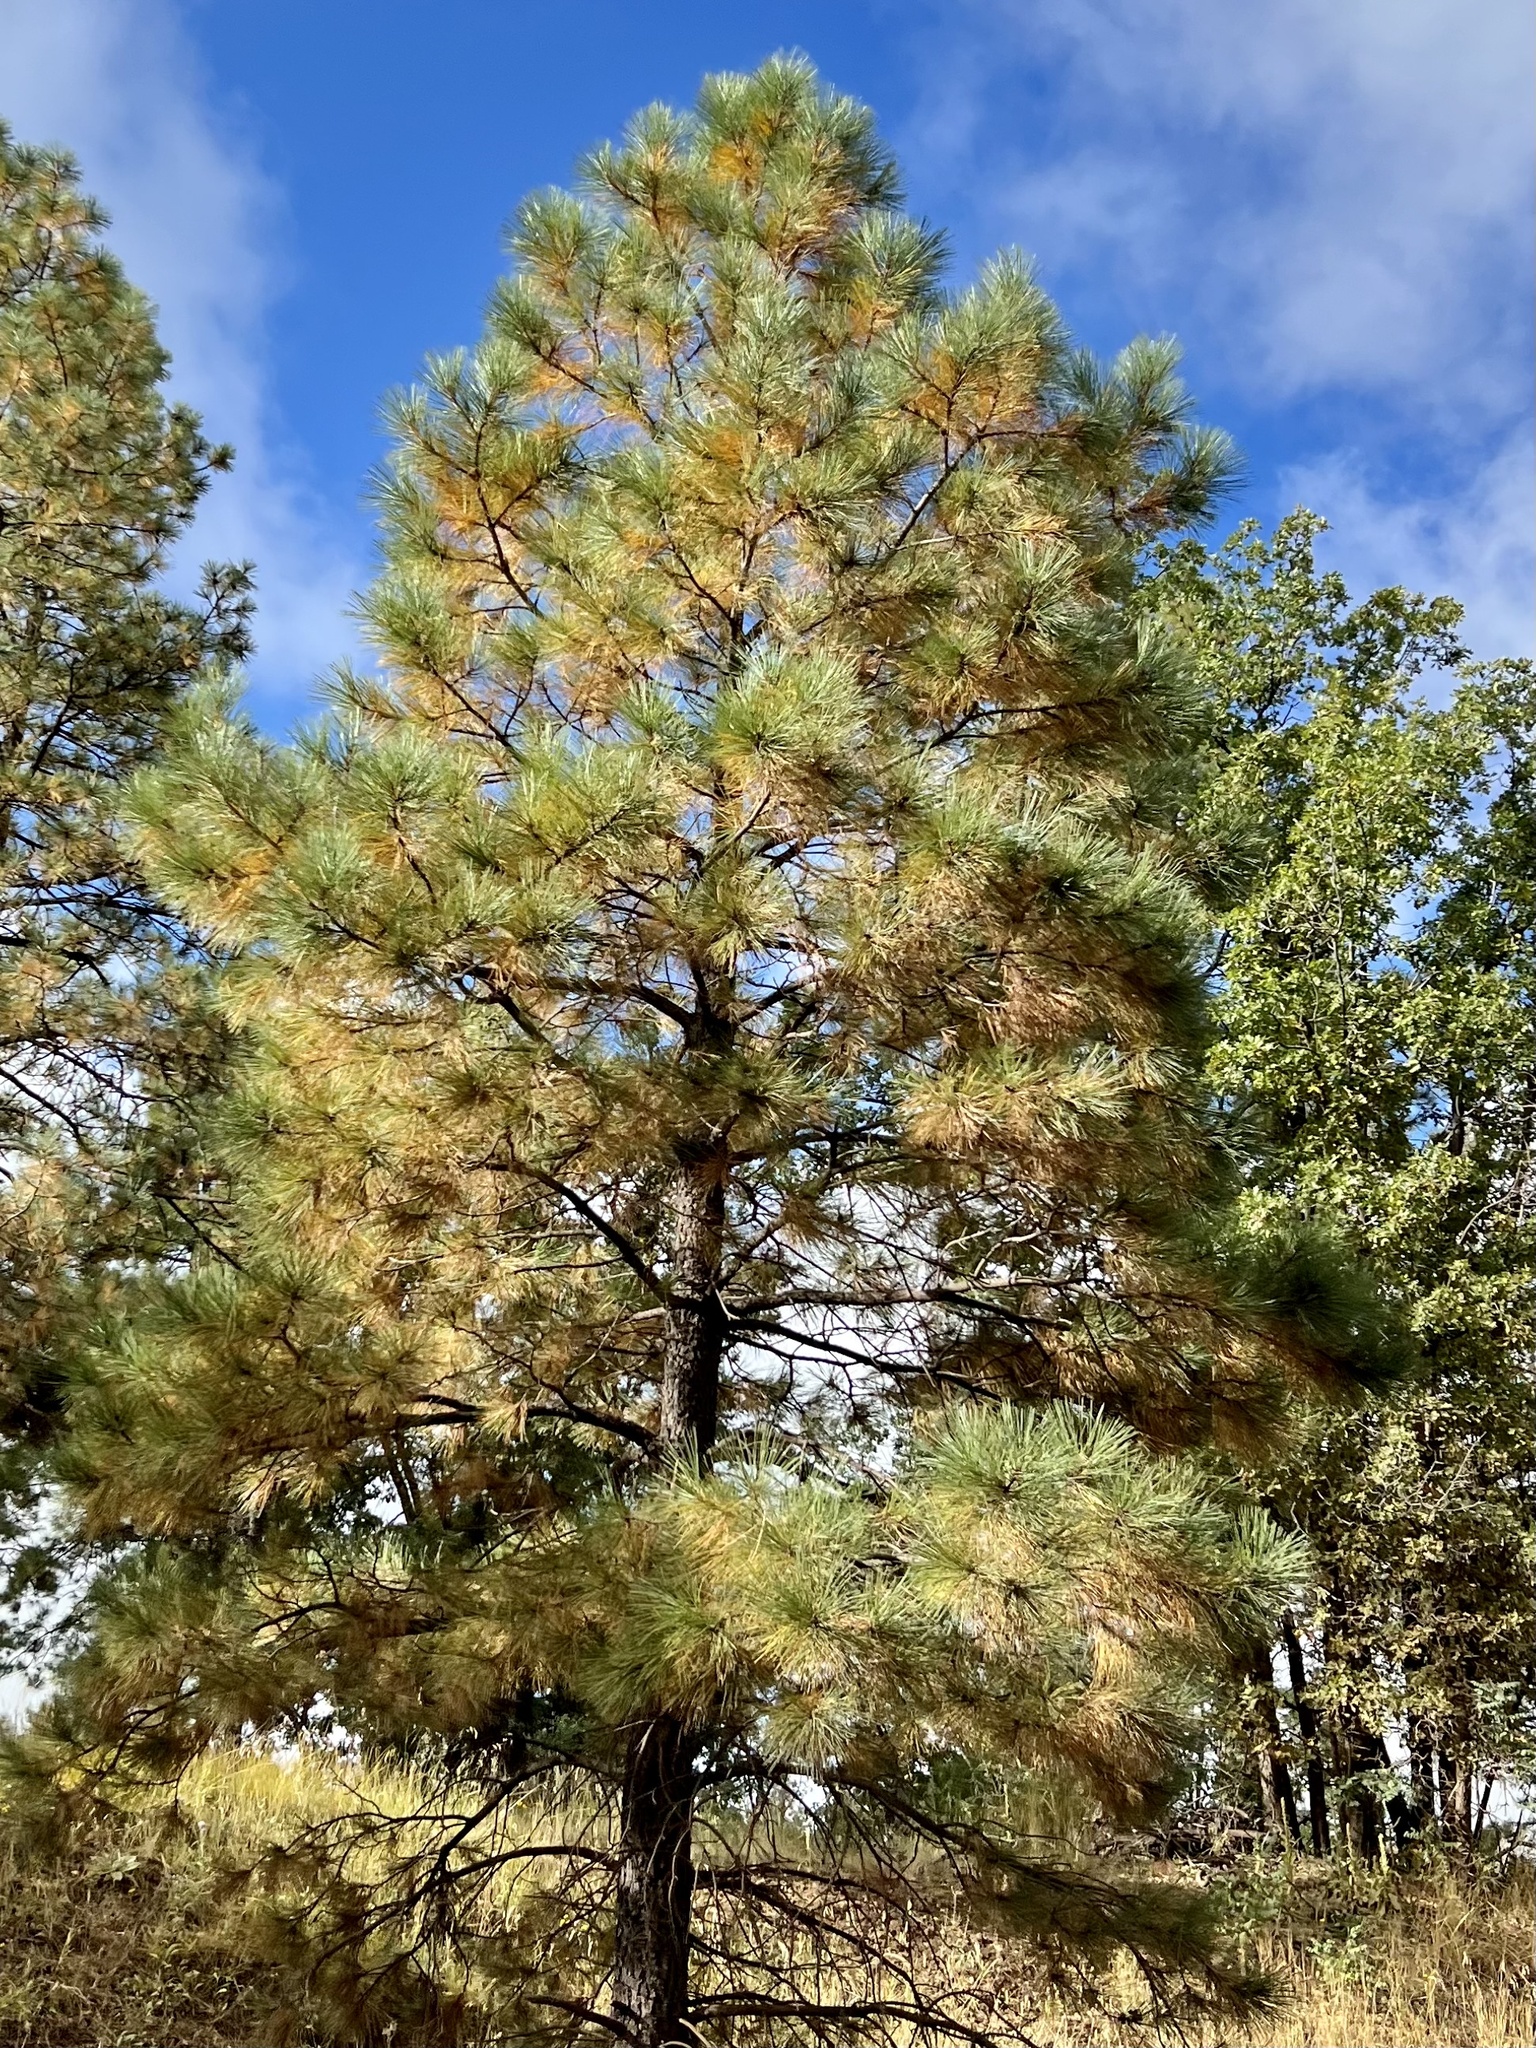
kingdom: Plantae
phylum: Tracheophyta
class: Pinopsida
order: Pinales
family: Pinaceae
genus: Pinus
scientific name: Pinus ponderosa
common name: Western yellow-pine
